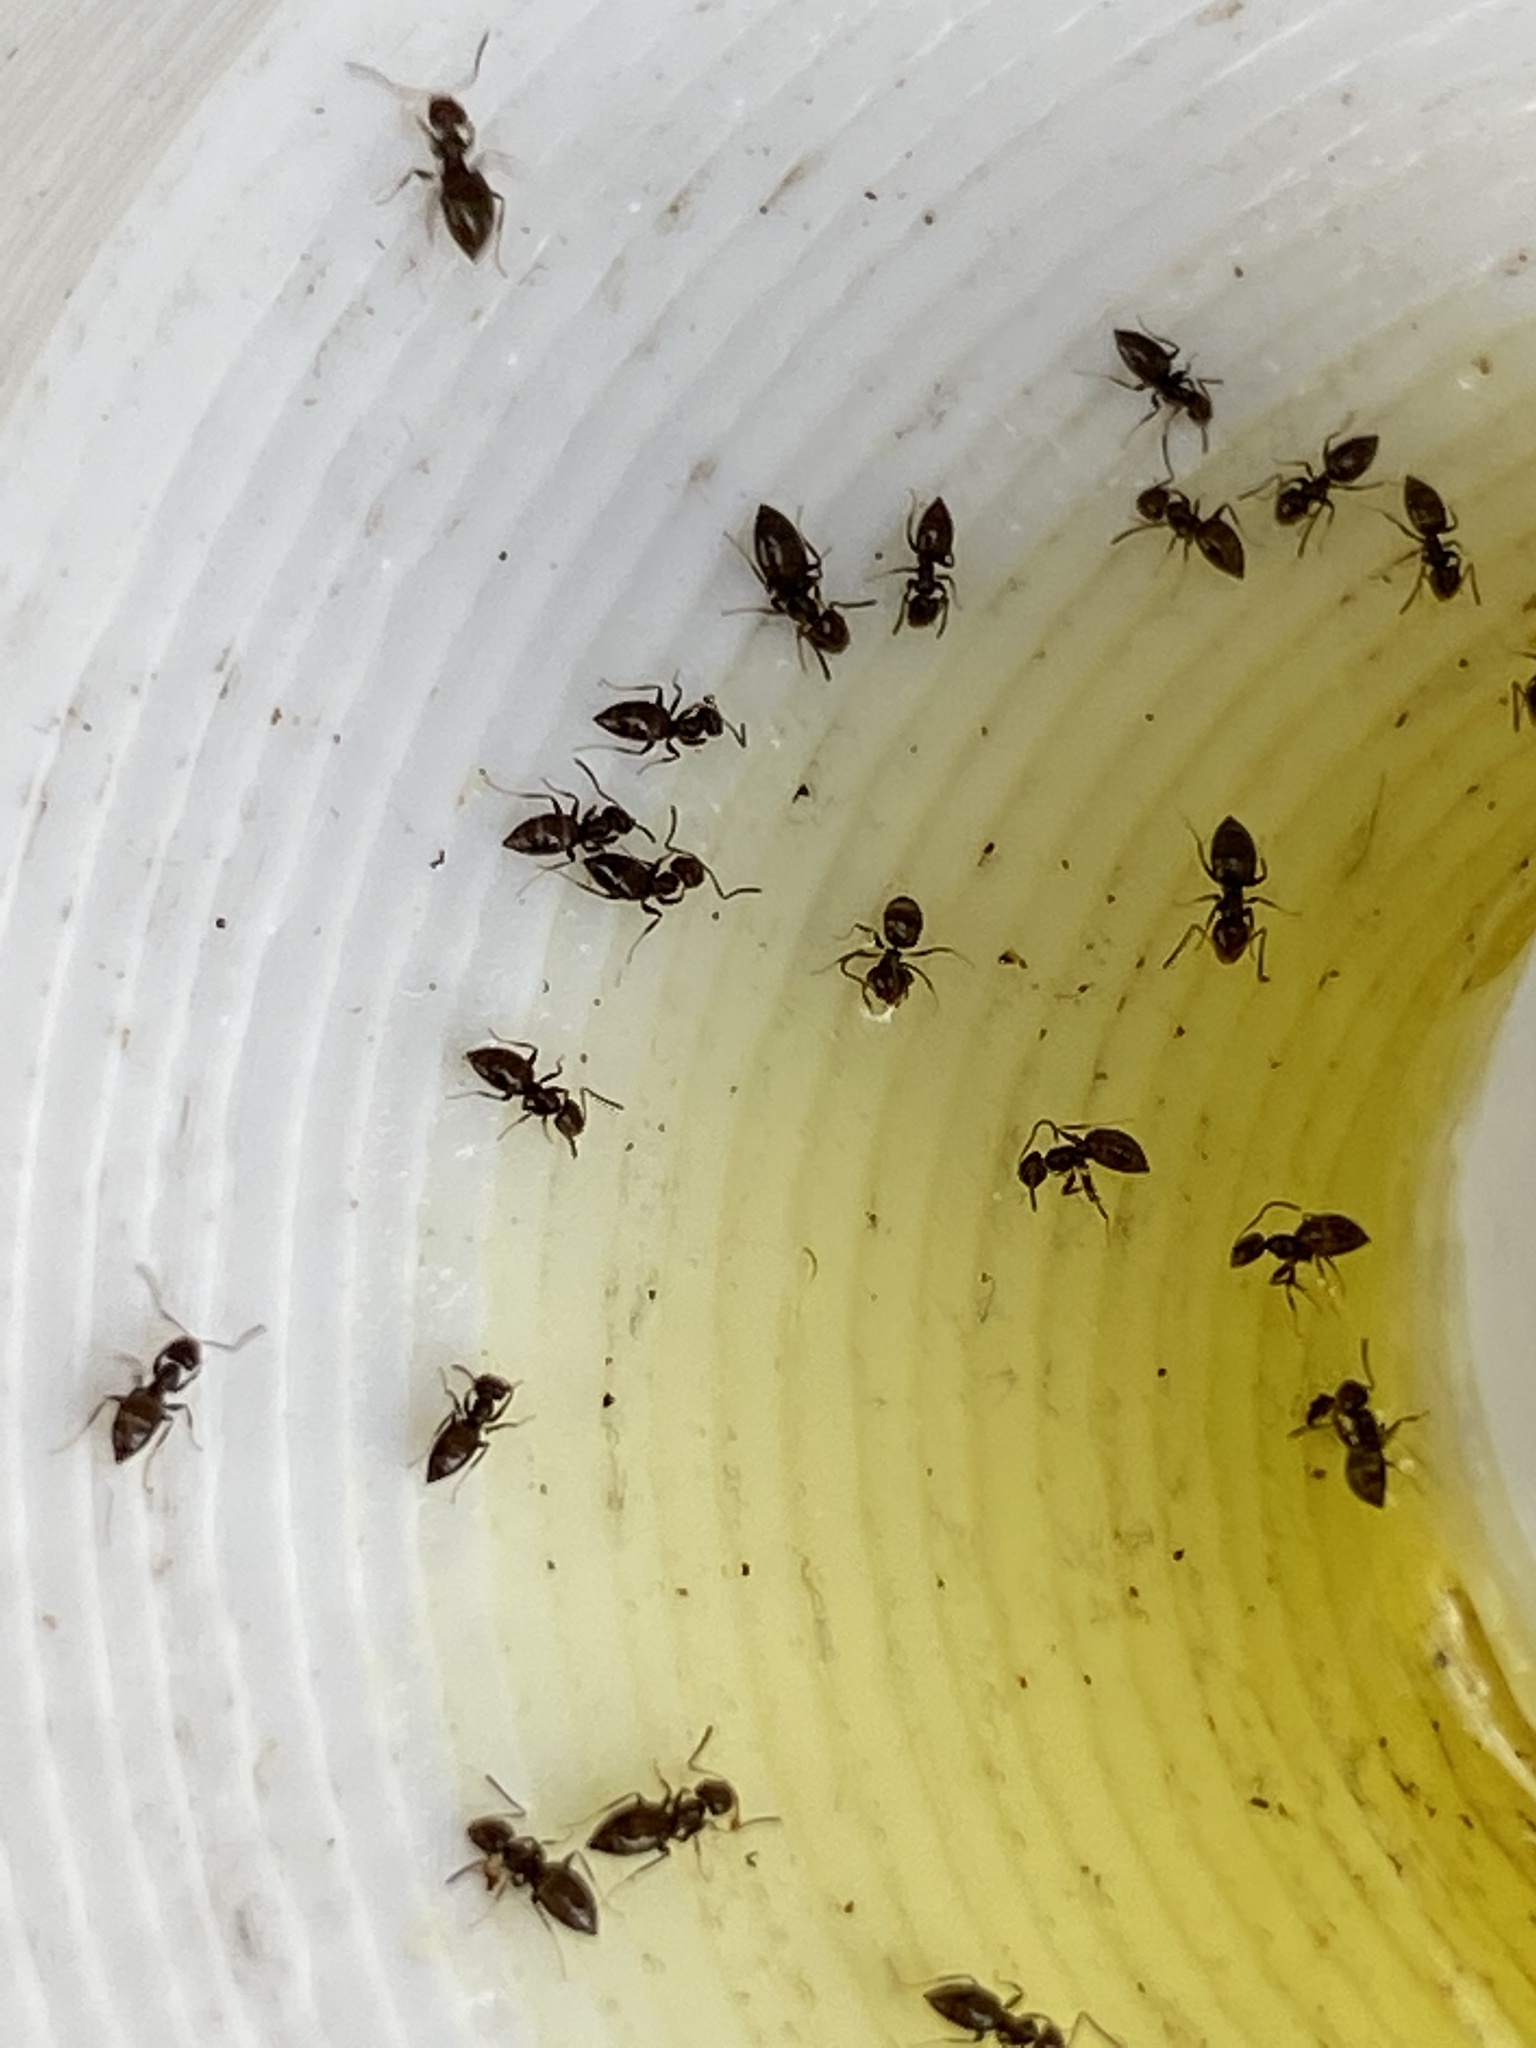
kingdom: Animalia
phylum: Arthropoda
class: Insecta
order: Hymenoptera
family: Formicidae
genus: Brachymyrmex
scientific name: Brachymyrmex patagonicus
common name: Dark rover ant
